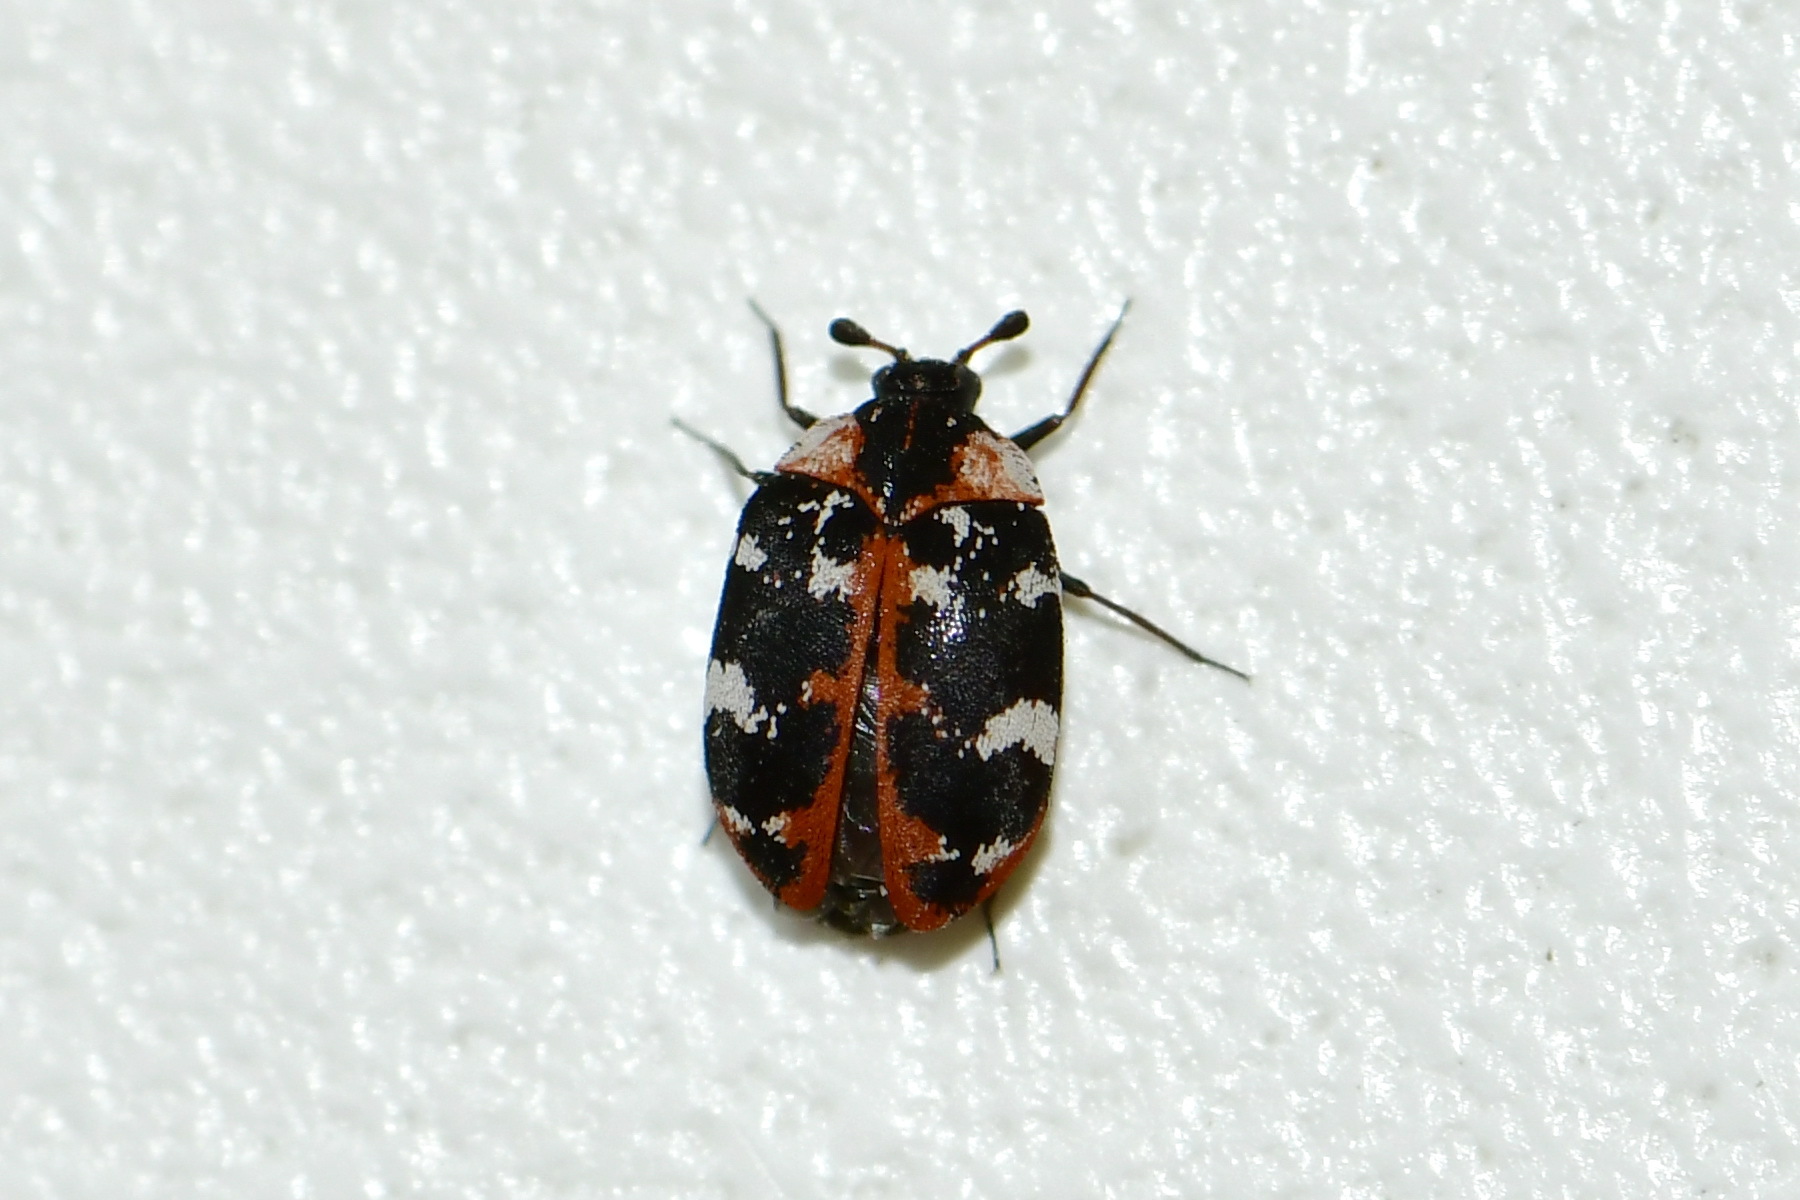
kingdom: Animalia
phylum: Arthropoda
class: Insecta
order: Coleoptera
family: Dermestidae
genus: Anthrenus
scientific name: Anthrenus scrophulariae
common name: Buffalo carpet beetle
